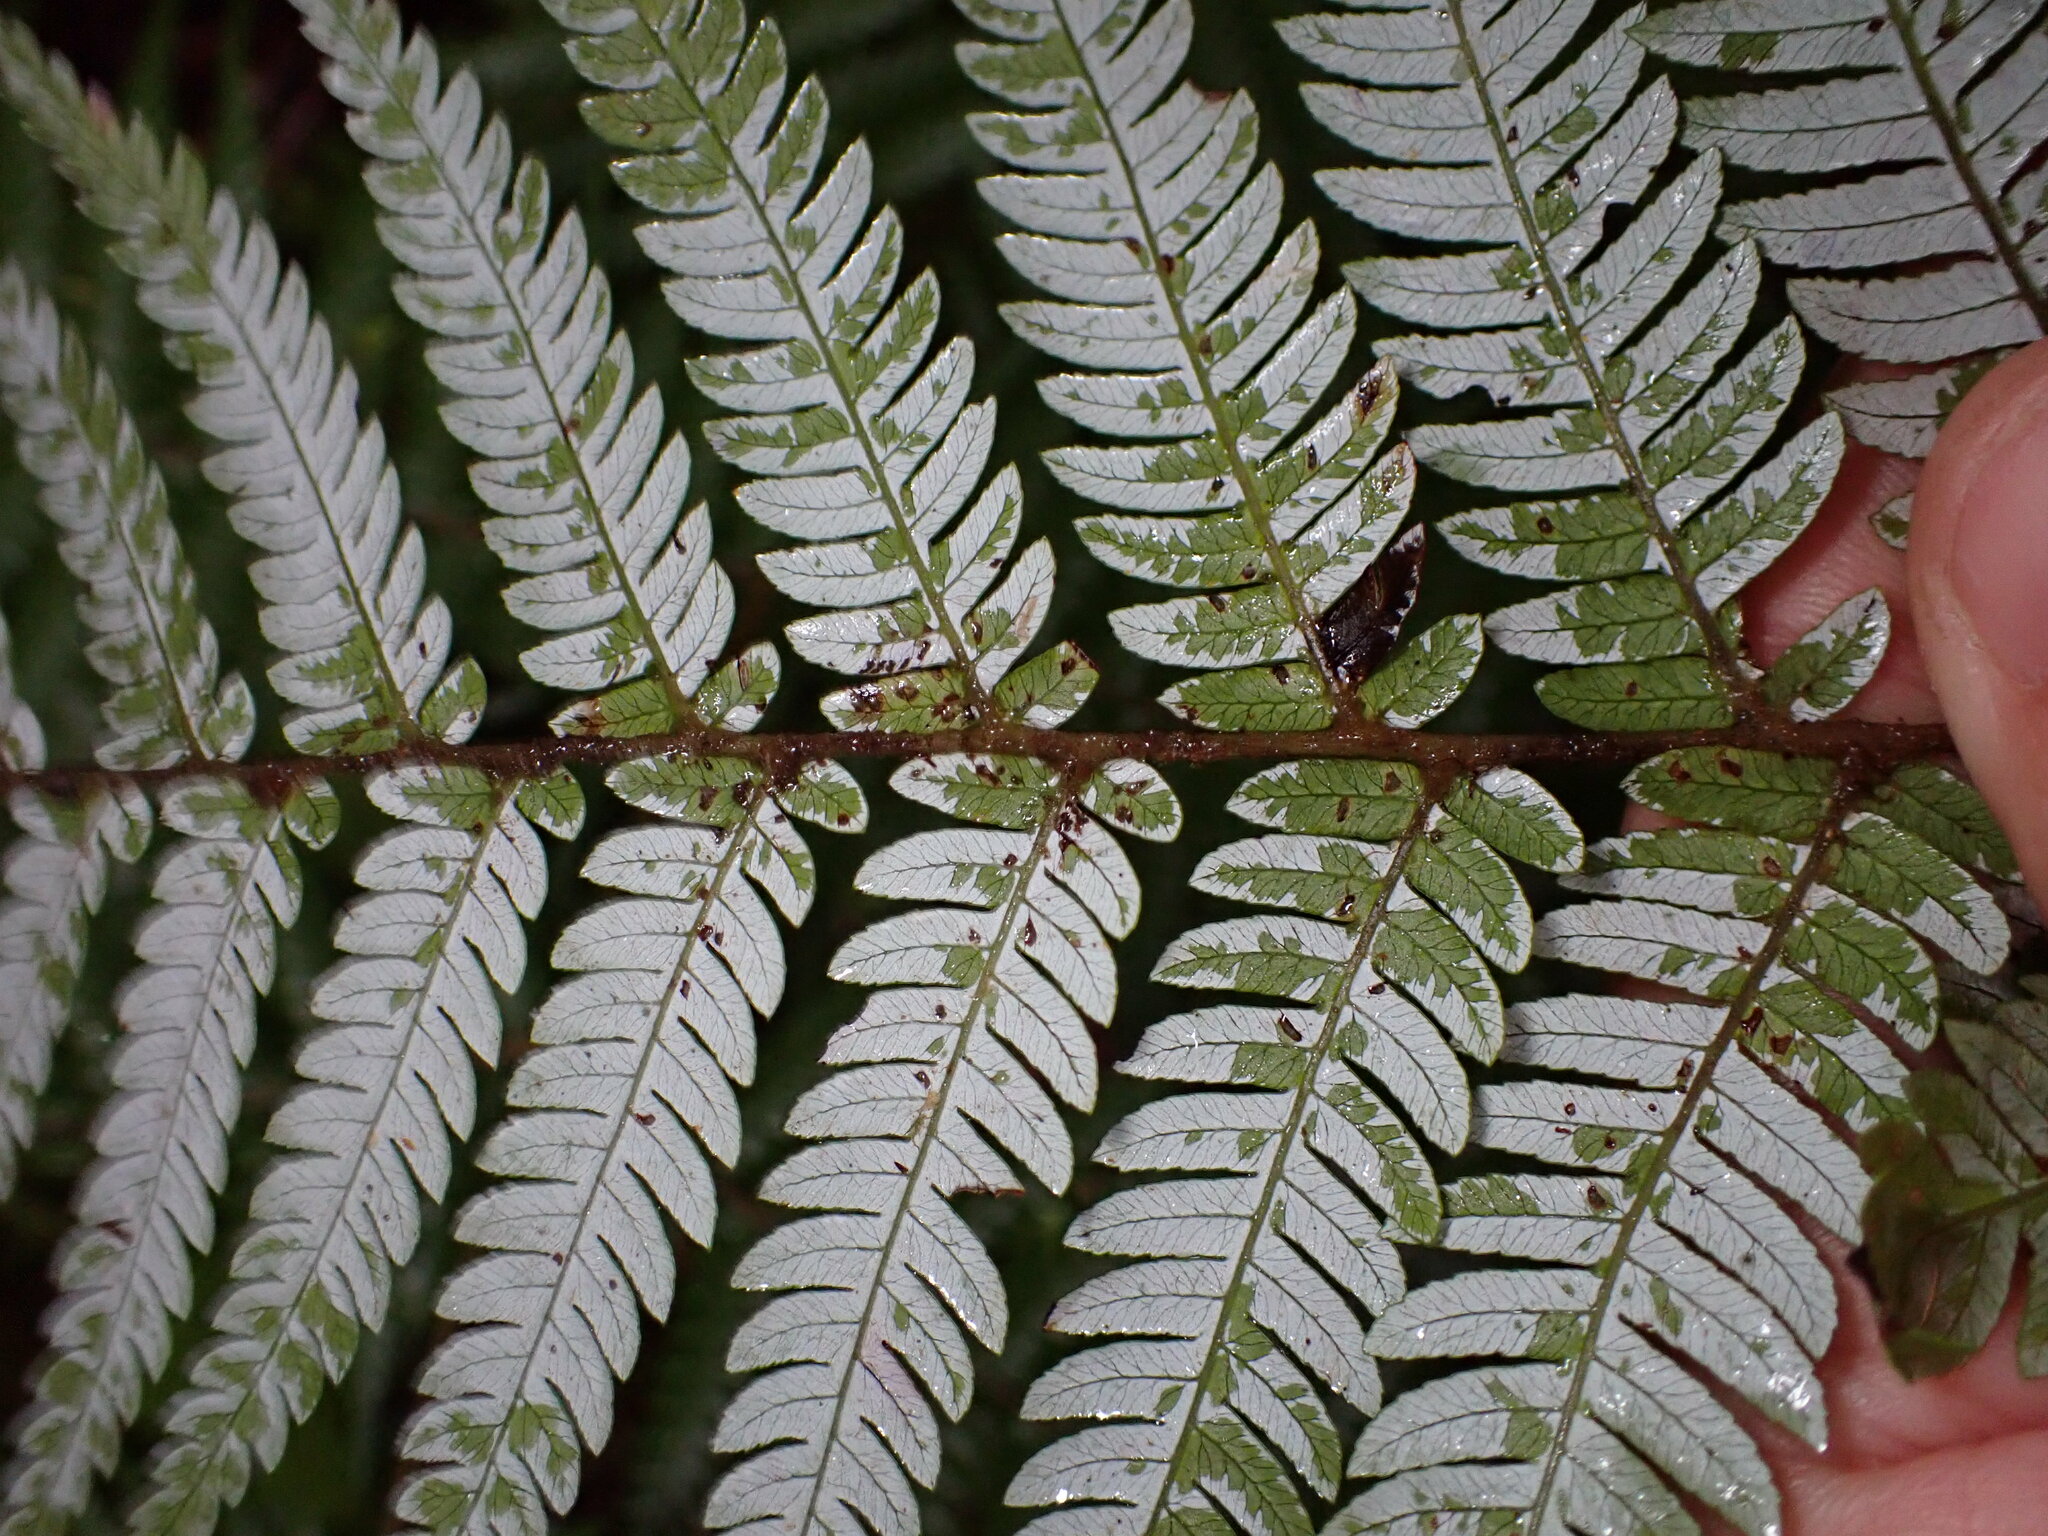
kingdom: Plantae
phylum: Tracheophyta
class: Polypodiopsida
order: Cyatheales
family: Cyatheaceae
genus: Alsophila
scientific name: Alsophila dealbata
